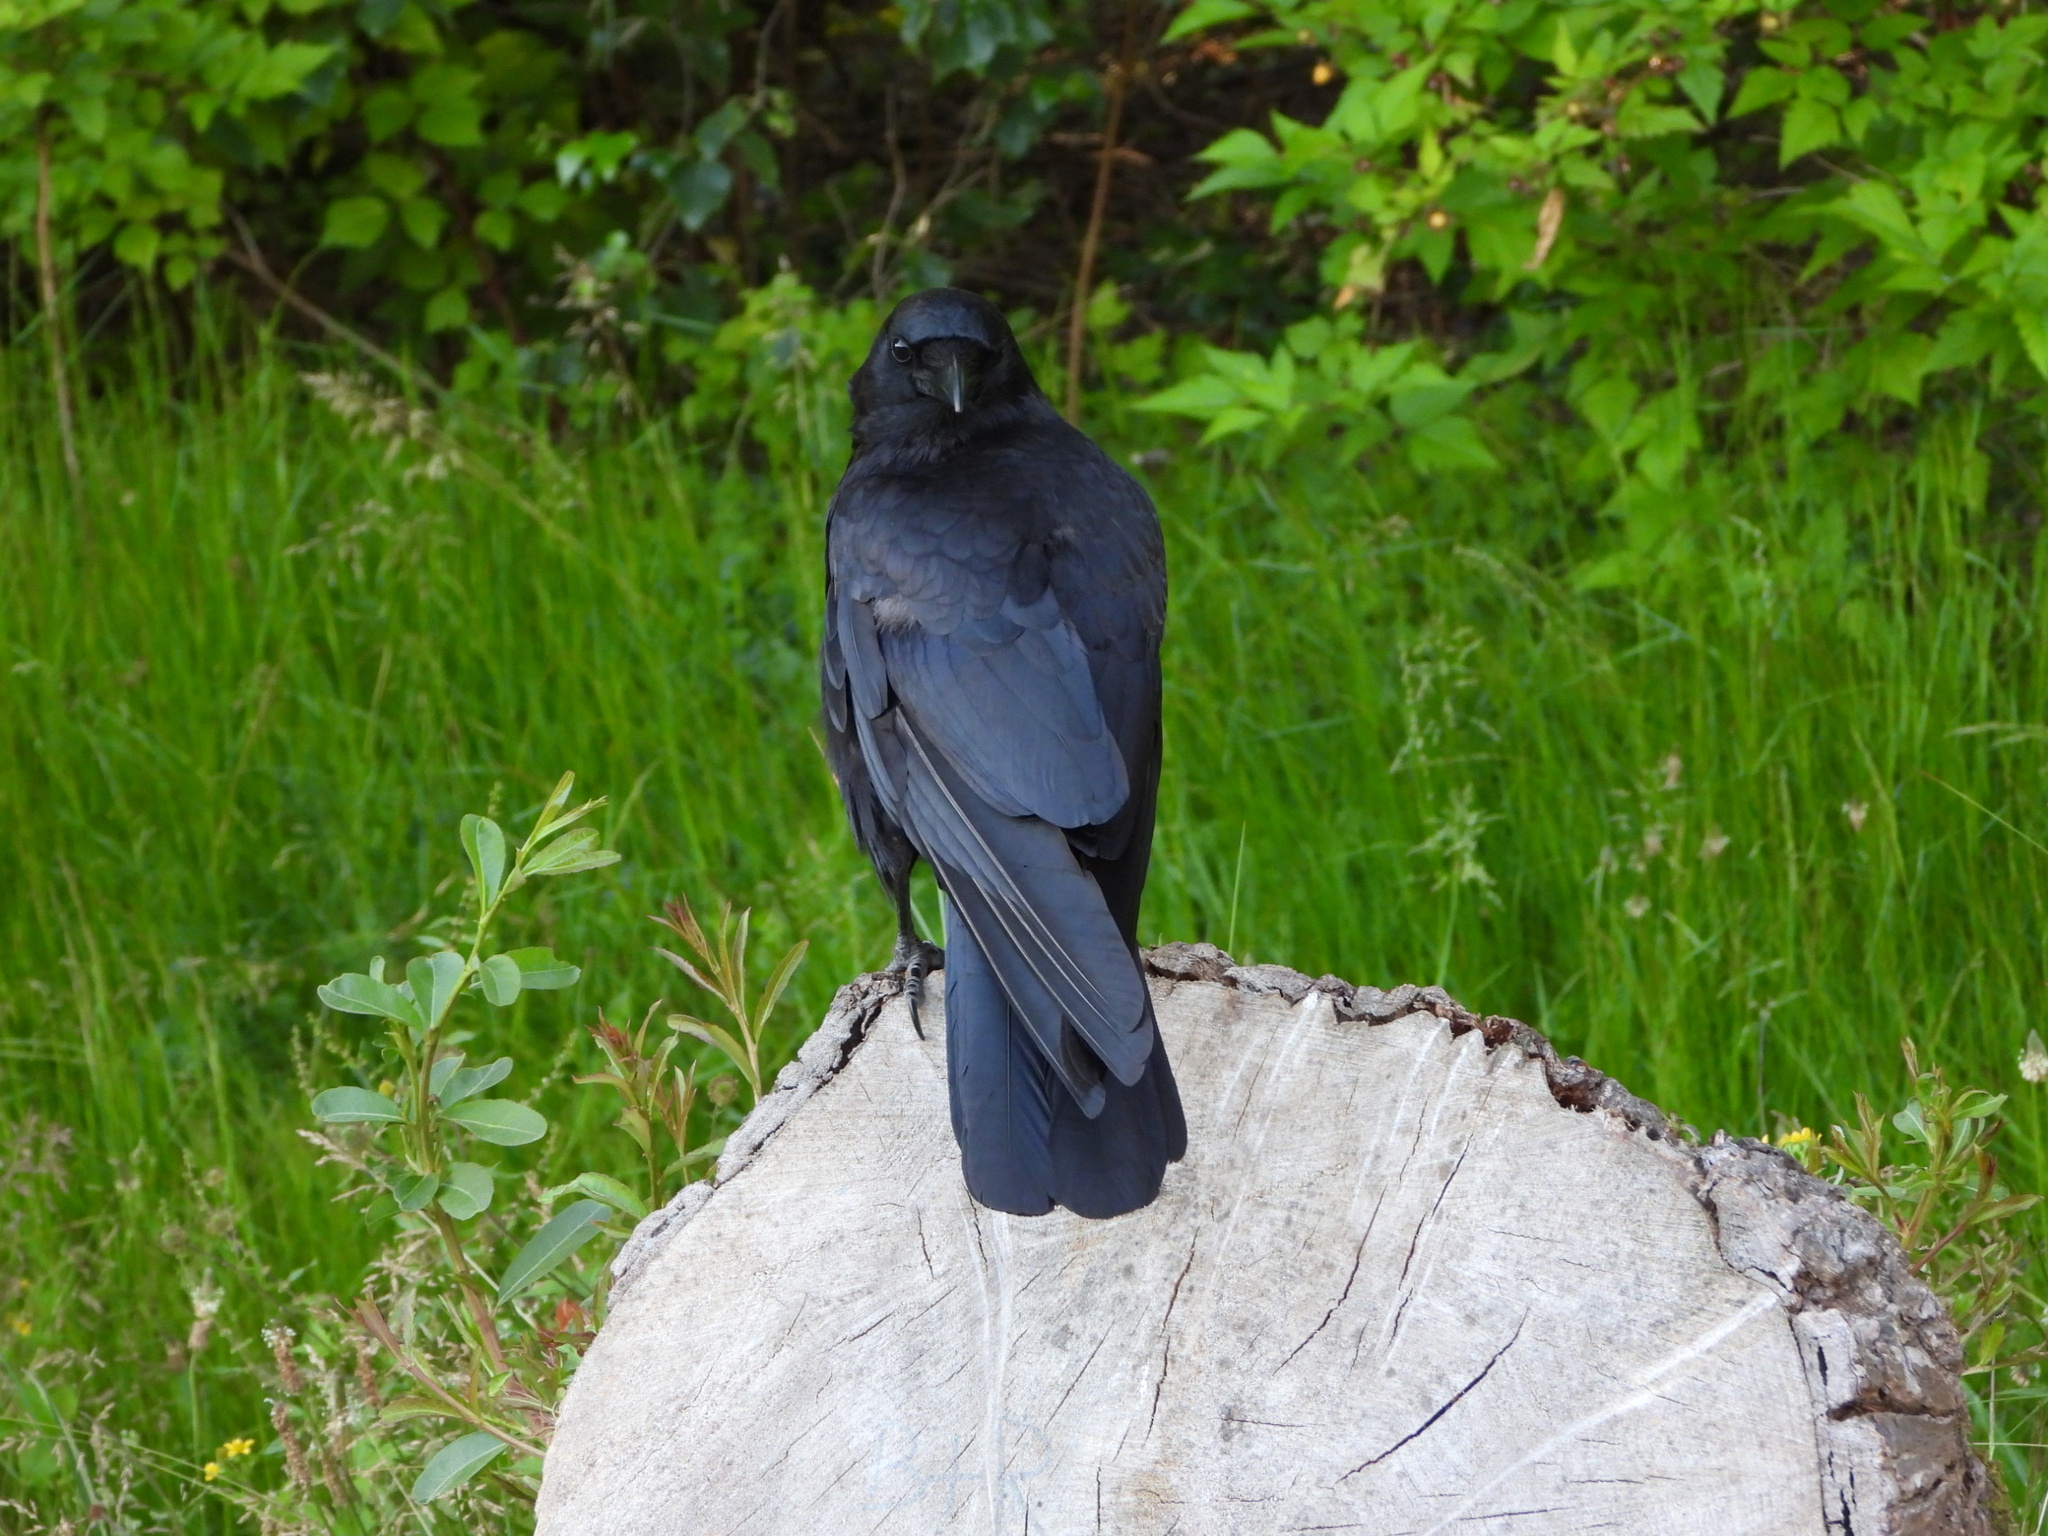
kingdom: Animalia
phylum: Chordata
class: Aves
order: Passeriformes
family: Corvidae
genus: Corvus
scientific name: Corvus brachyrhynchos
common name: American crow
